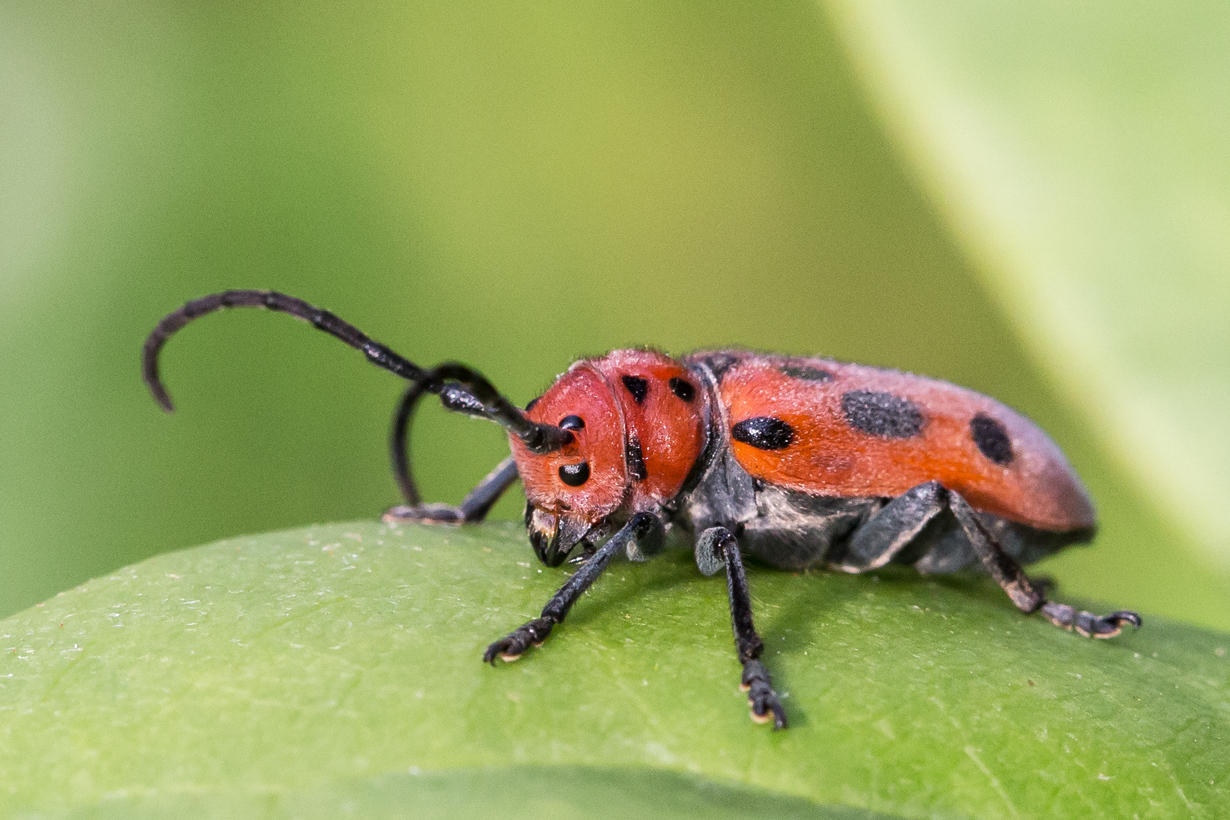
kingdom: Animalia
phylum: Arthropoda
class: Insecta
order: Coleoptera
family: Cerambycidae
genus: Tetraopes
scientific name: Tetraopes tetrophthalmus
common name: Red milkweed beetle
